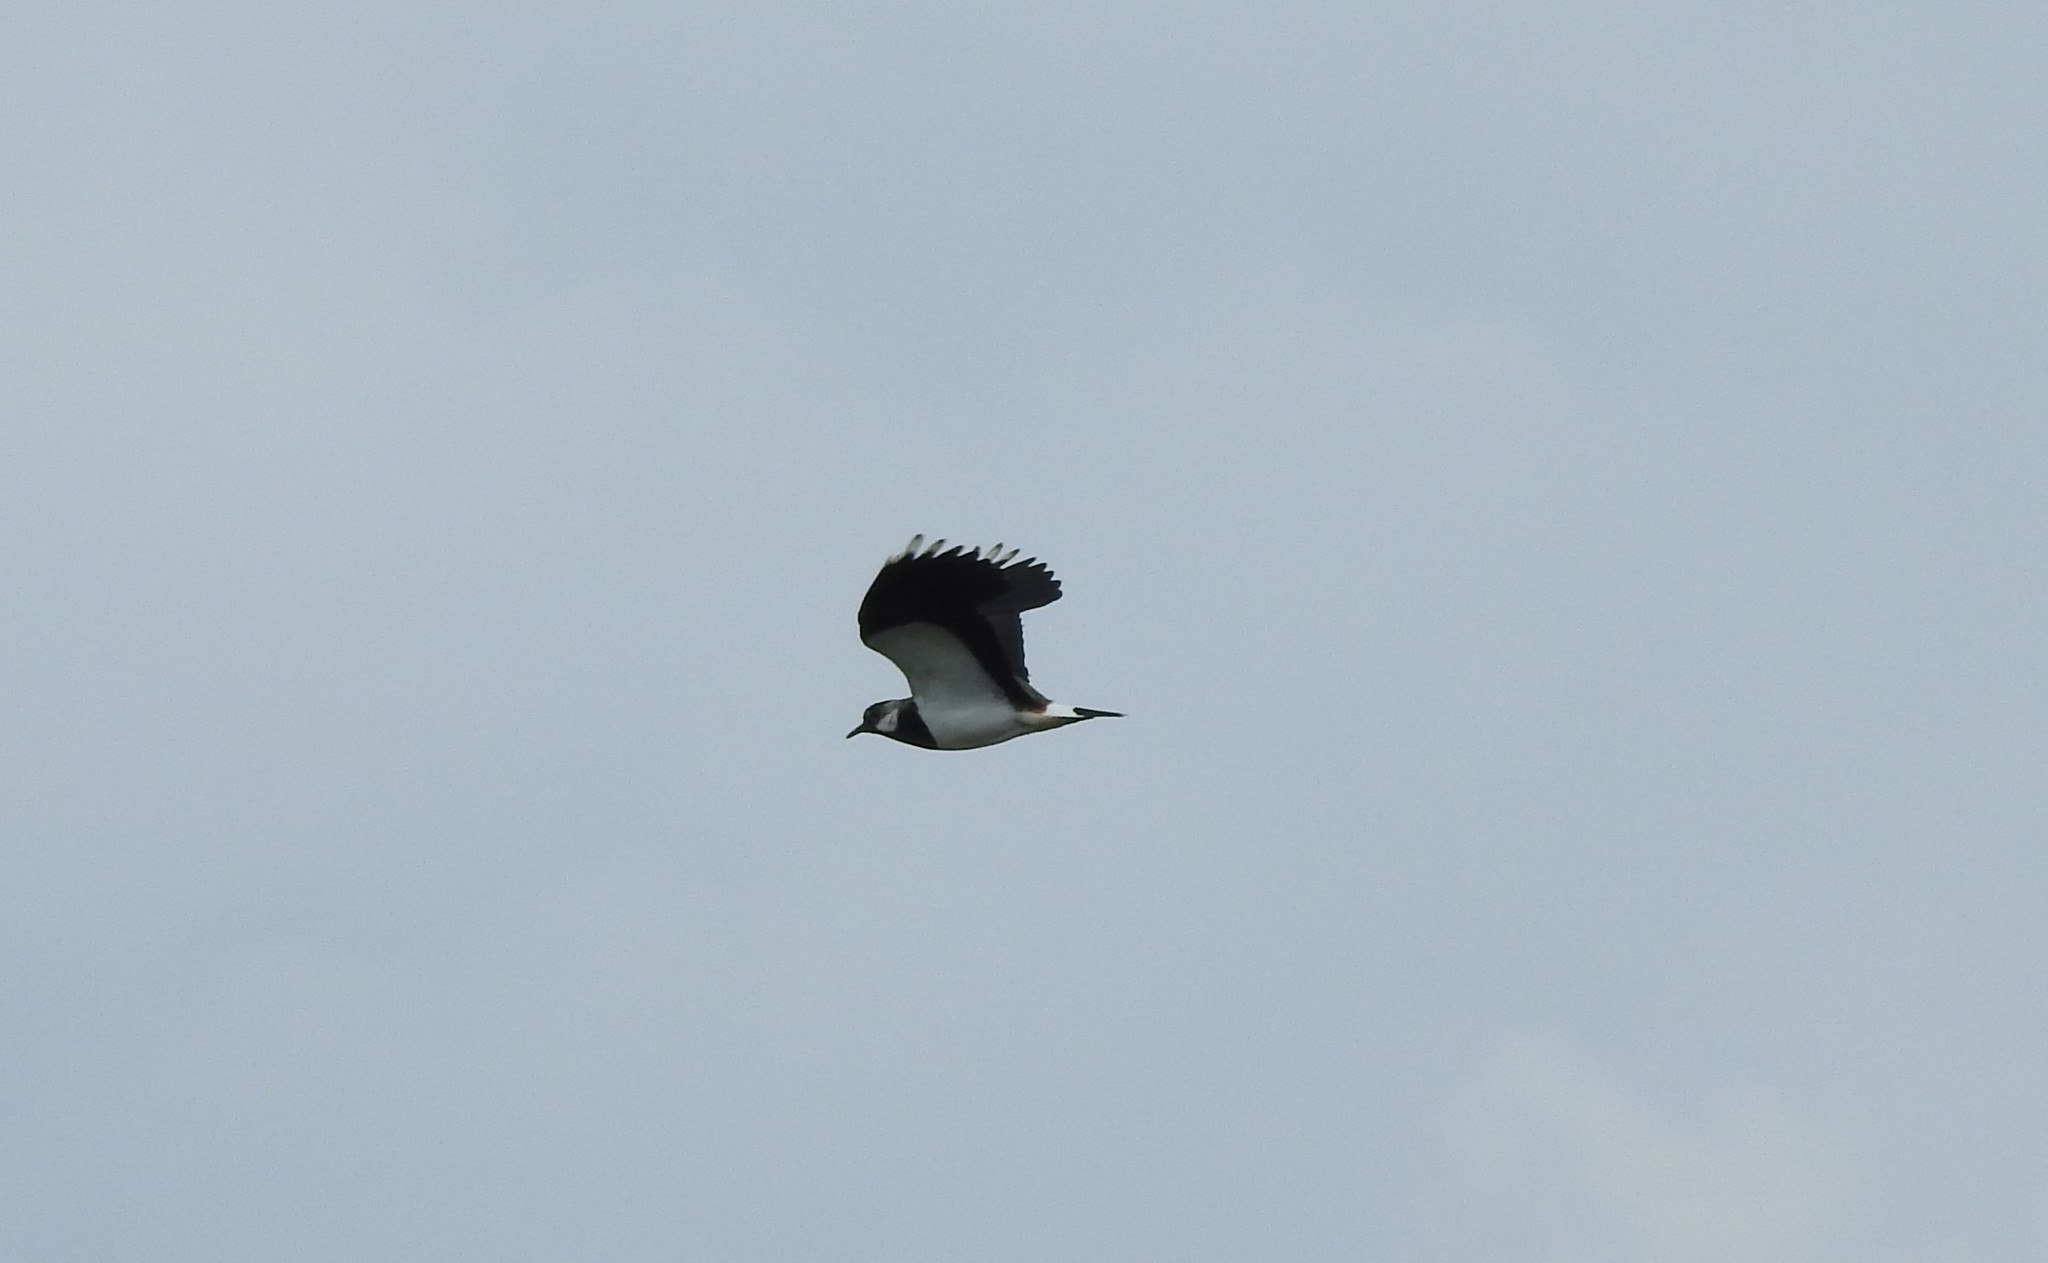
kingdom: Animalia
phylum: Chordata
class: Aves
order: Charadriiformes
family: Charadriidae
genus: Vanellus
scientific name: Vanellus vanellus
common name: Northern lapwing
